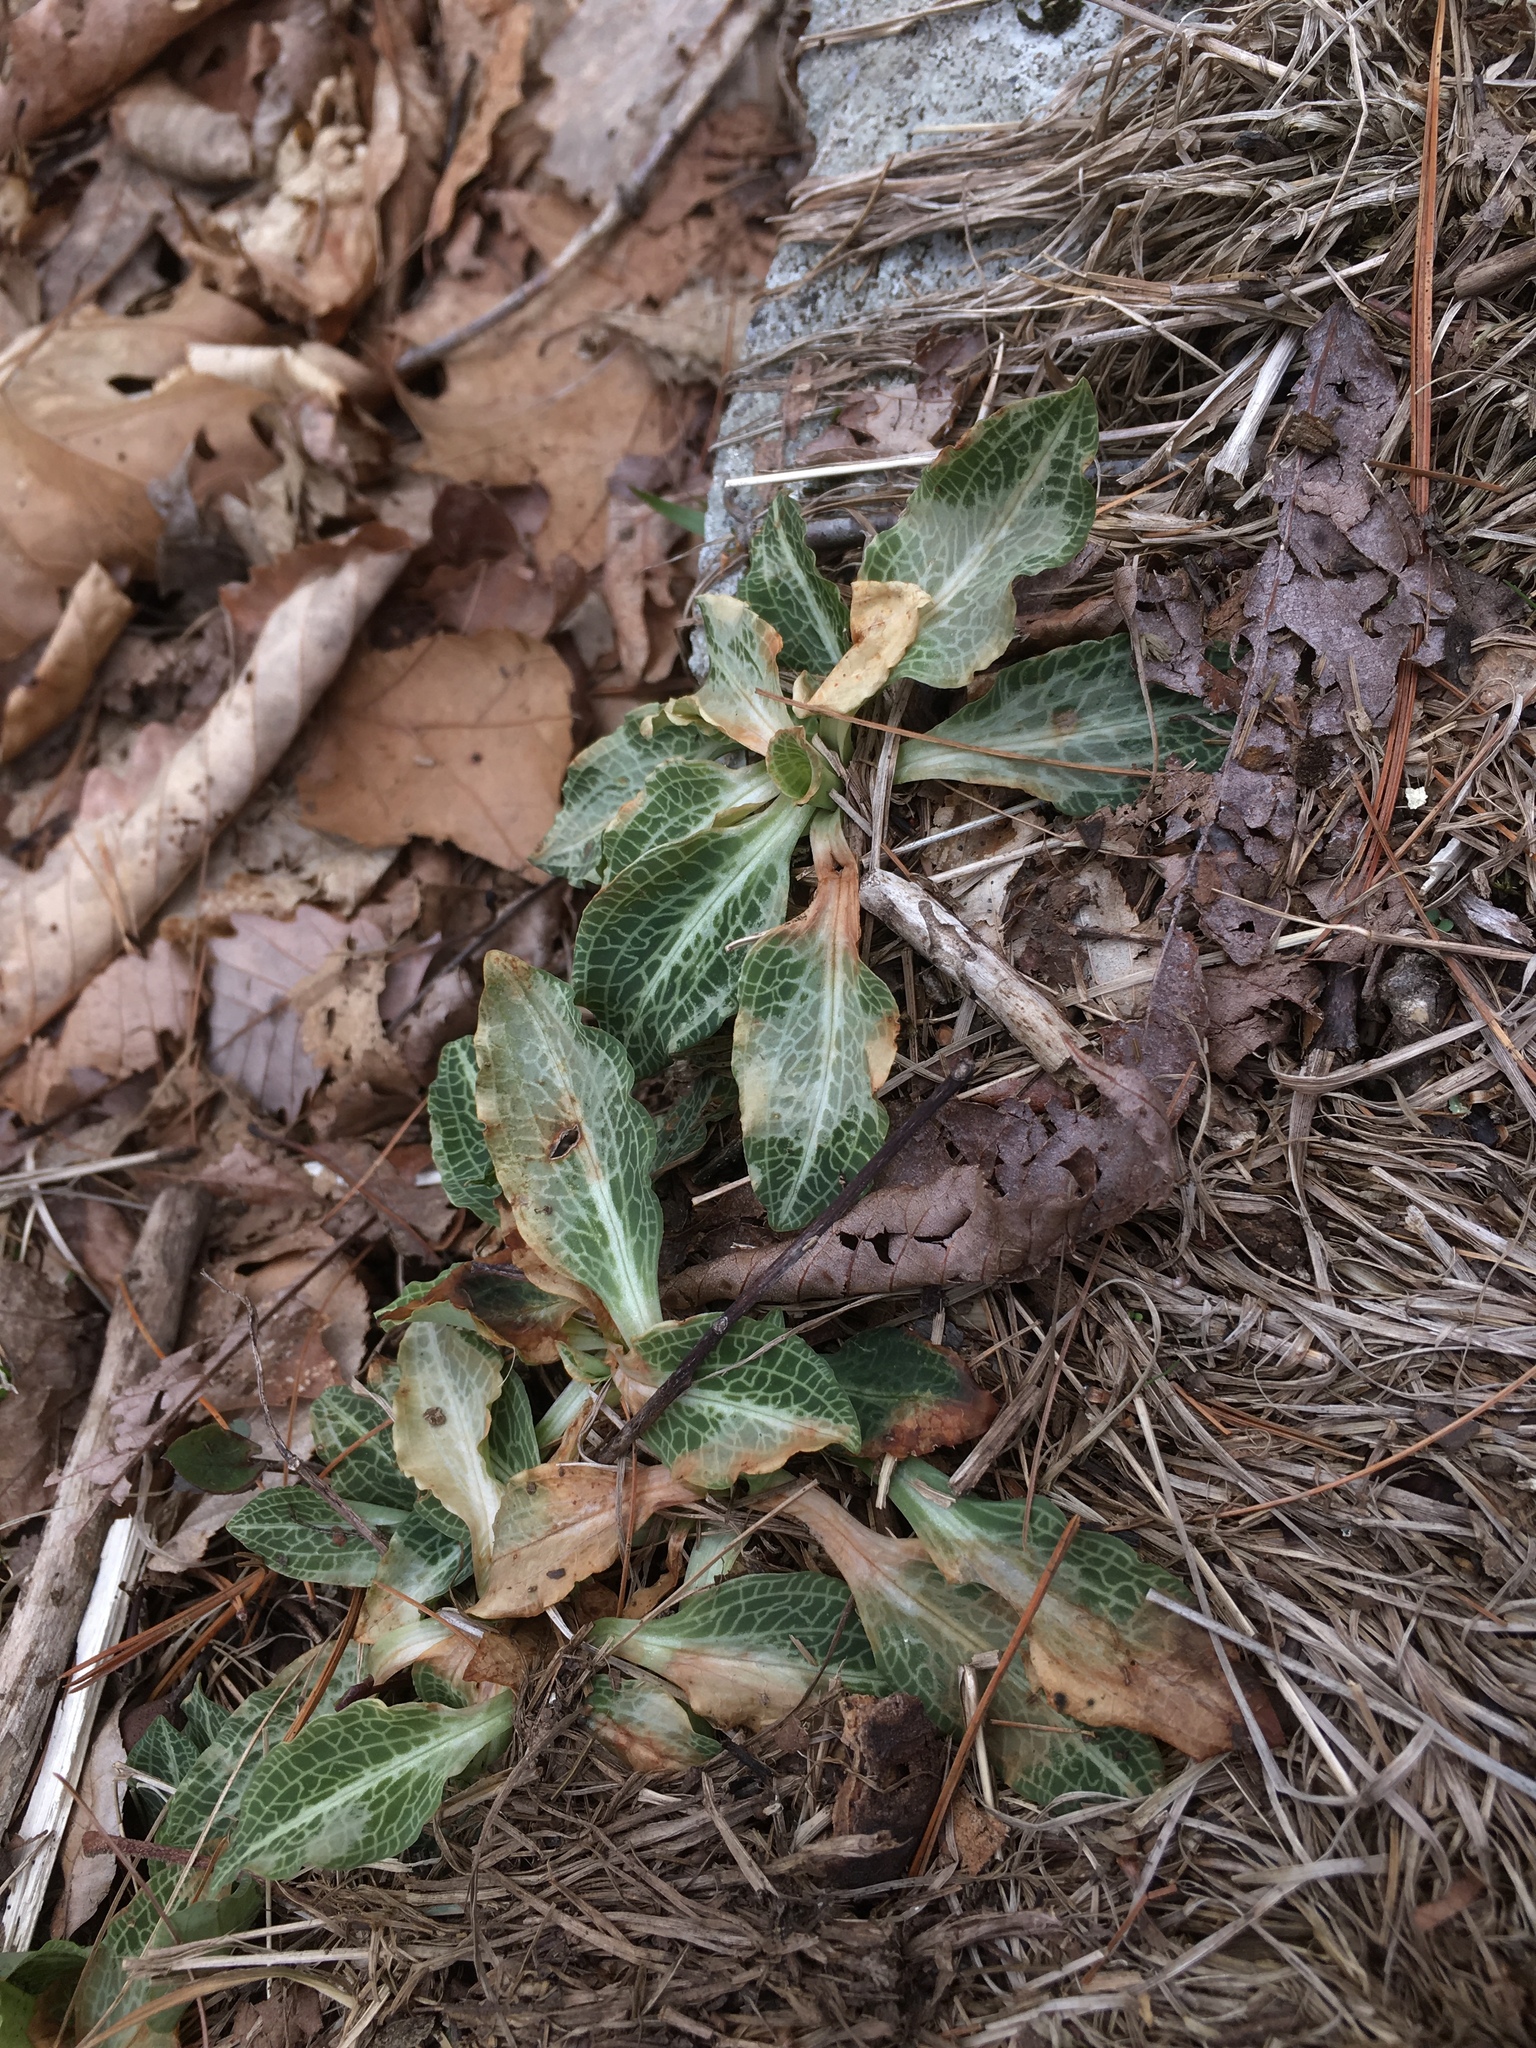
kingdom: Plantae
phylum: Tracheophyta
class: Liliopsida
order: Asparagales
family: Orchidaceae
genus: Goodyera
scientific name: Goodyera pubescens
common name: Downy rattlesnake-plantain
